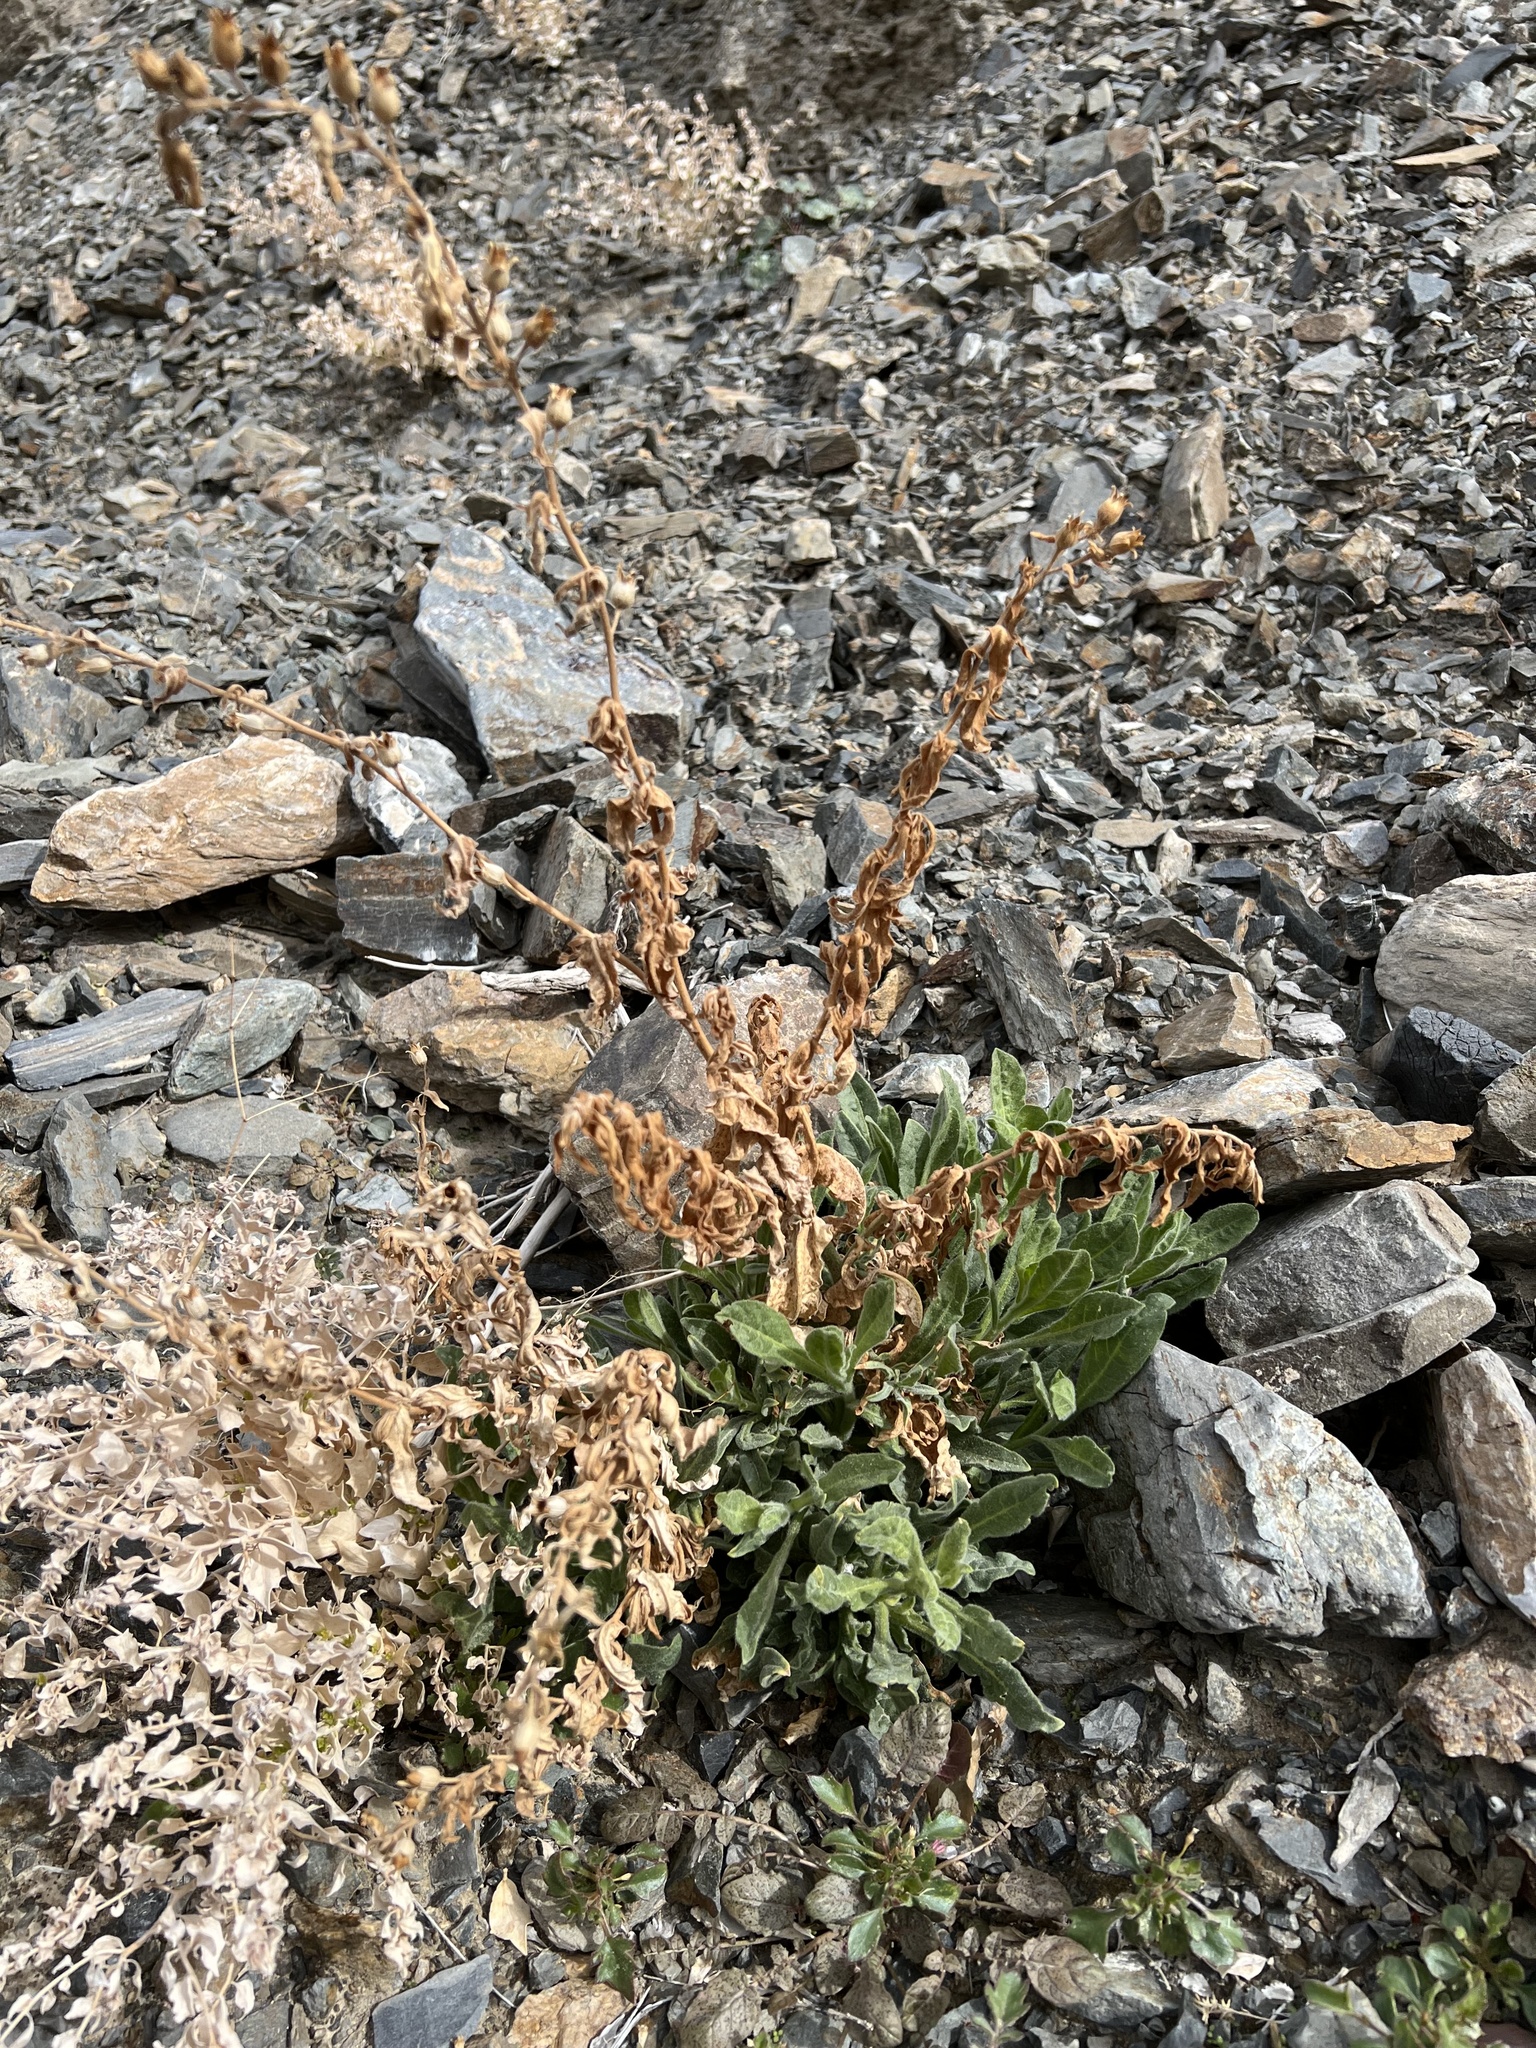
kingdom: Plantae
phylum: Tracheophyta
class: Magnoliopsida
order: Solanales
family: Solanaceae
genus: Nicotiana
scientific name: Nicotiana obtusifolia
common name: Desert tobacco
